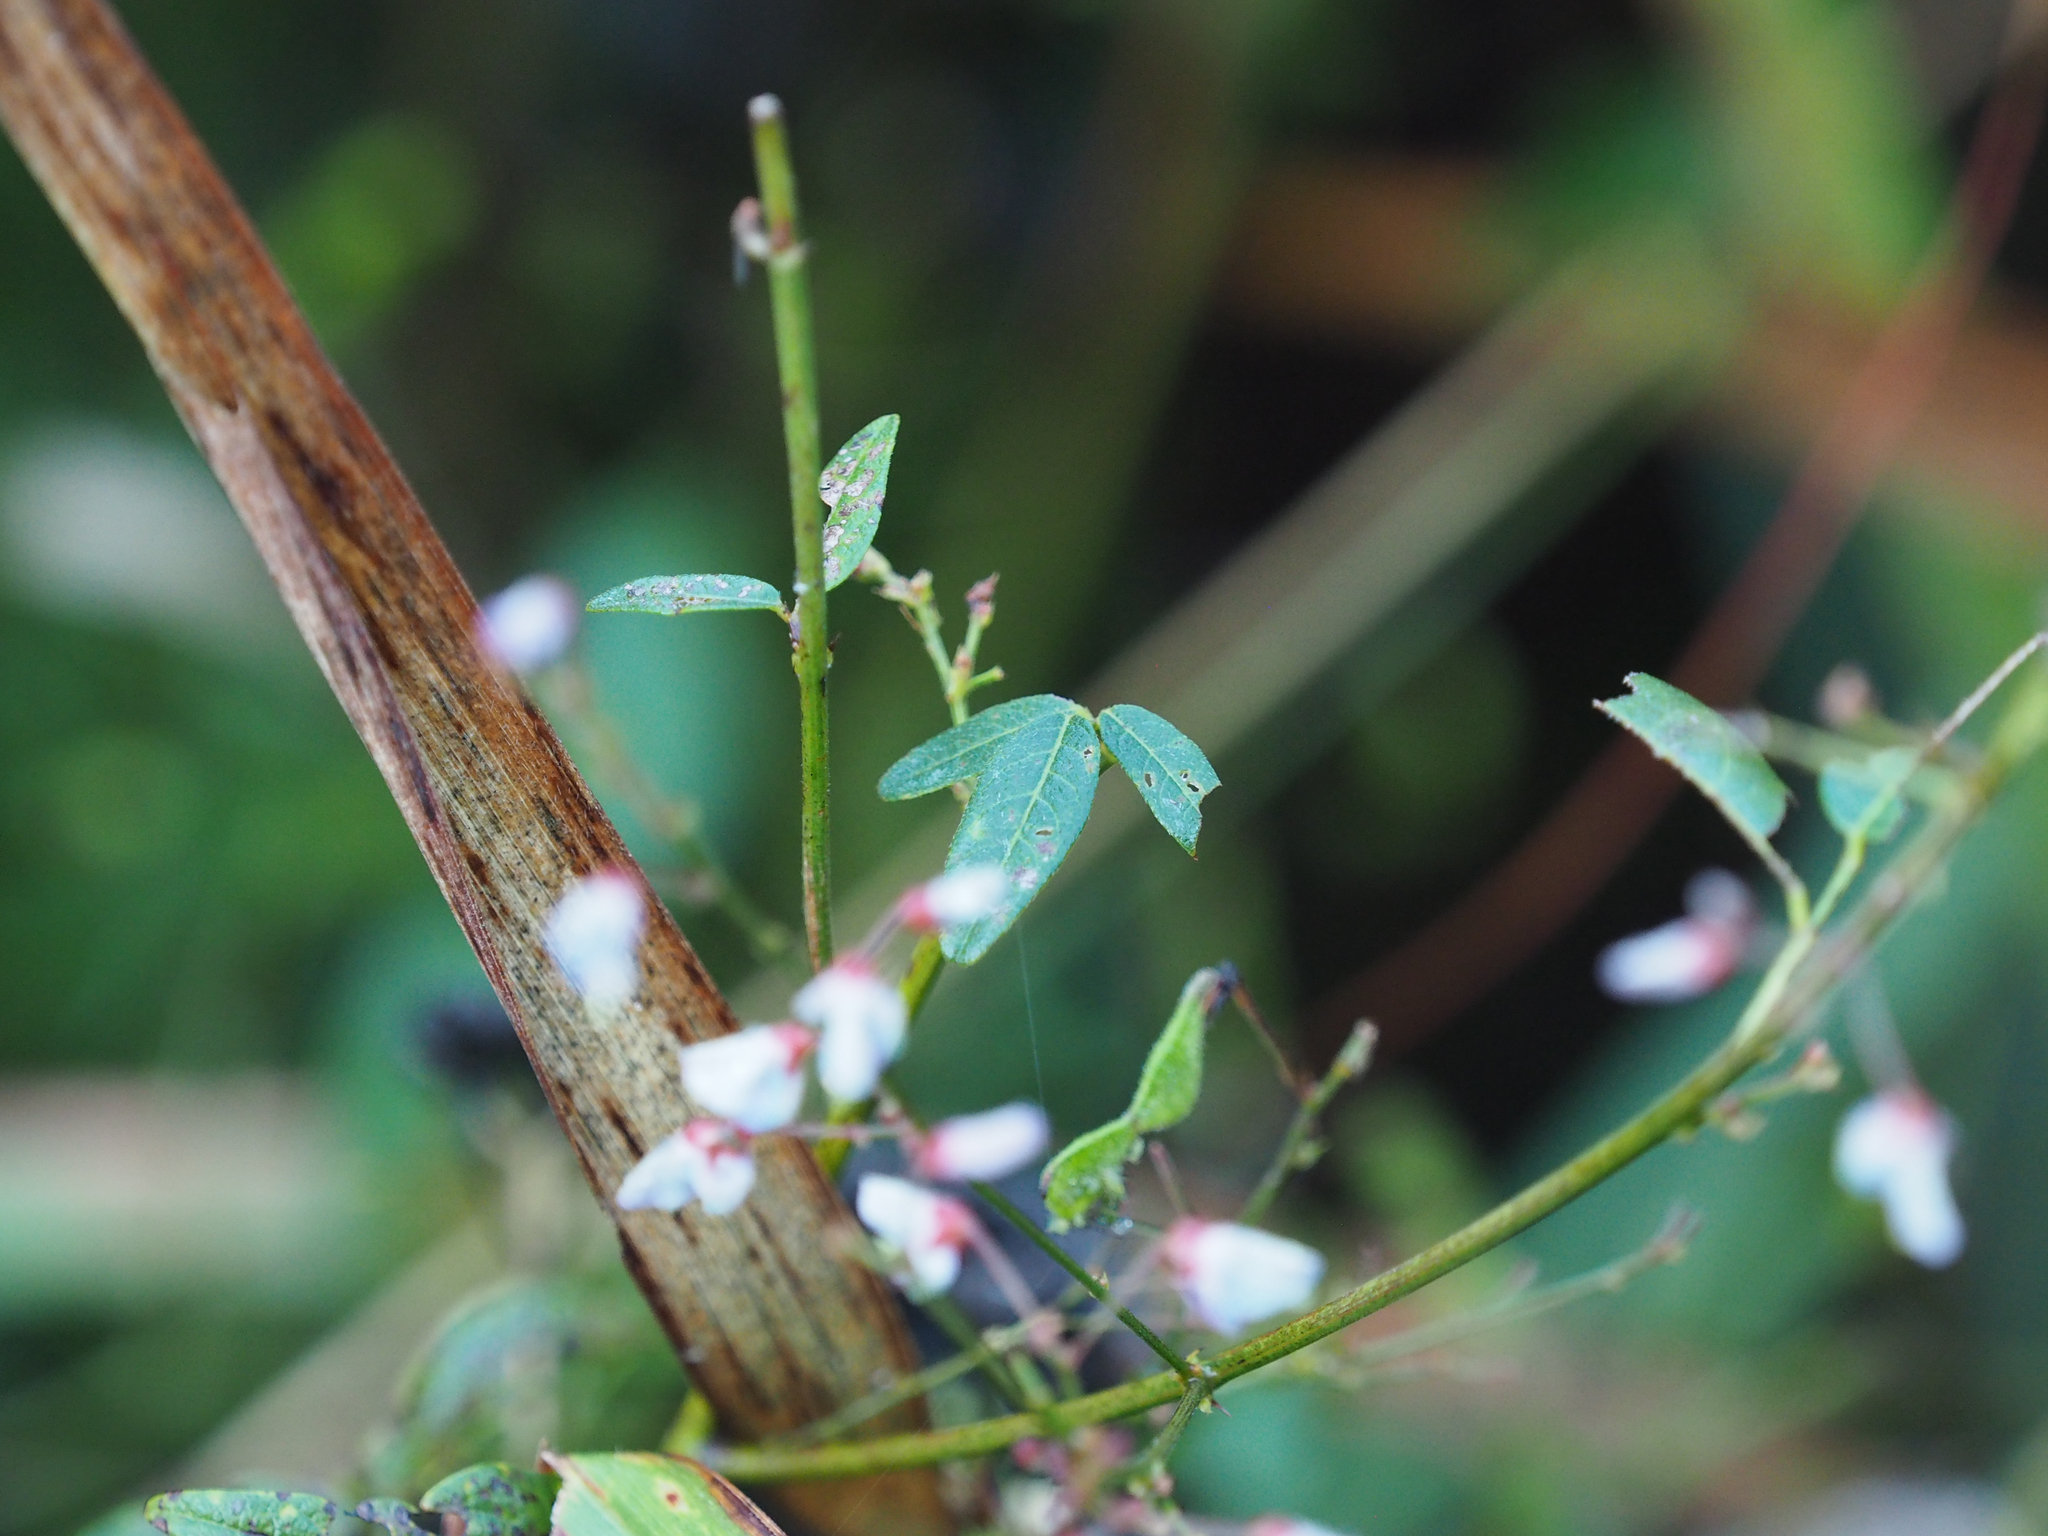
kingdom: Plantae
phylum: Tracheophyta
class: Magnoliopsida
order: Fabales
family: Fabaceae
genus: Desmodium
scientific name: Desmodium paniculatum
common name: Panicled tick-clover
